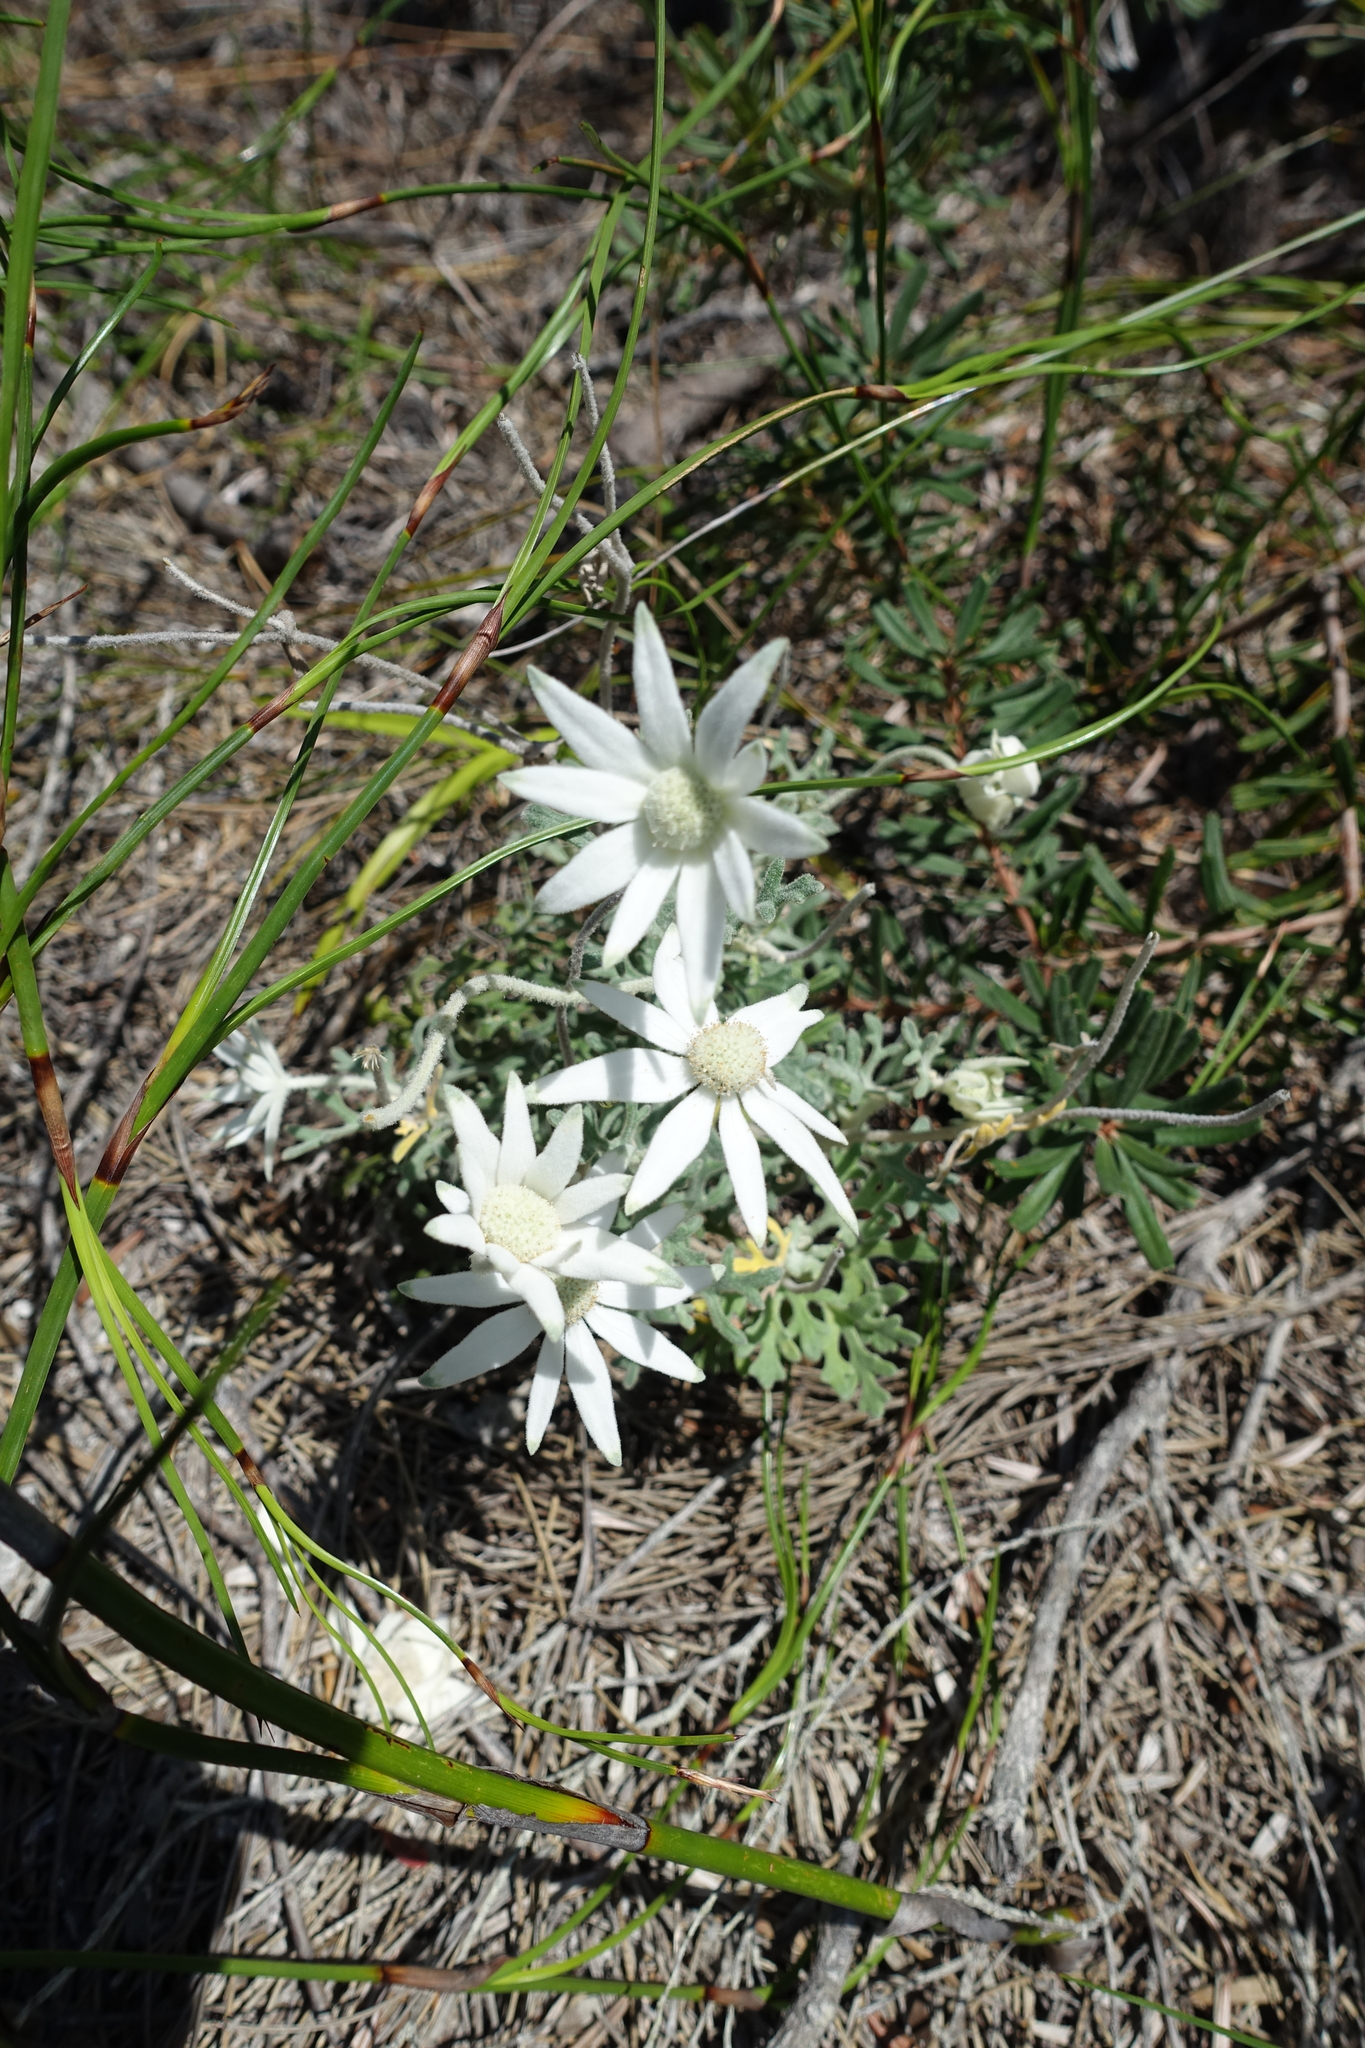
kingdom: Plantae
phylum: Tracheophyta
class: Magnoliopsida
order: Apiales
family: Apiaceae
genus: Actinotus
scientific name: Actinotus helianthi
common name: Flannel-flower
